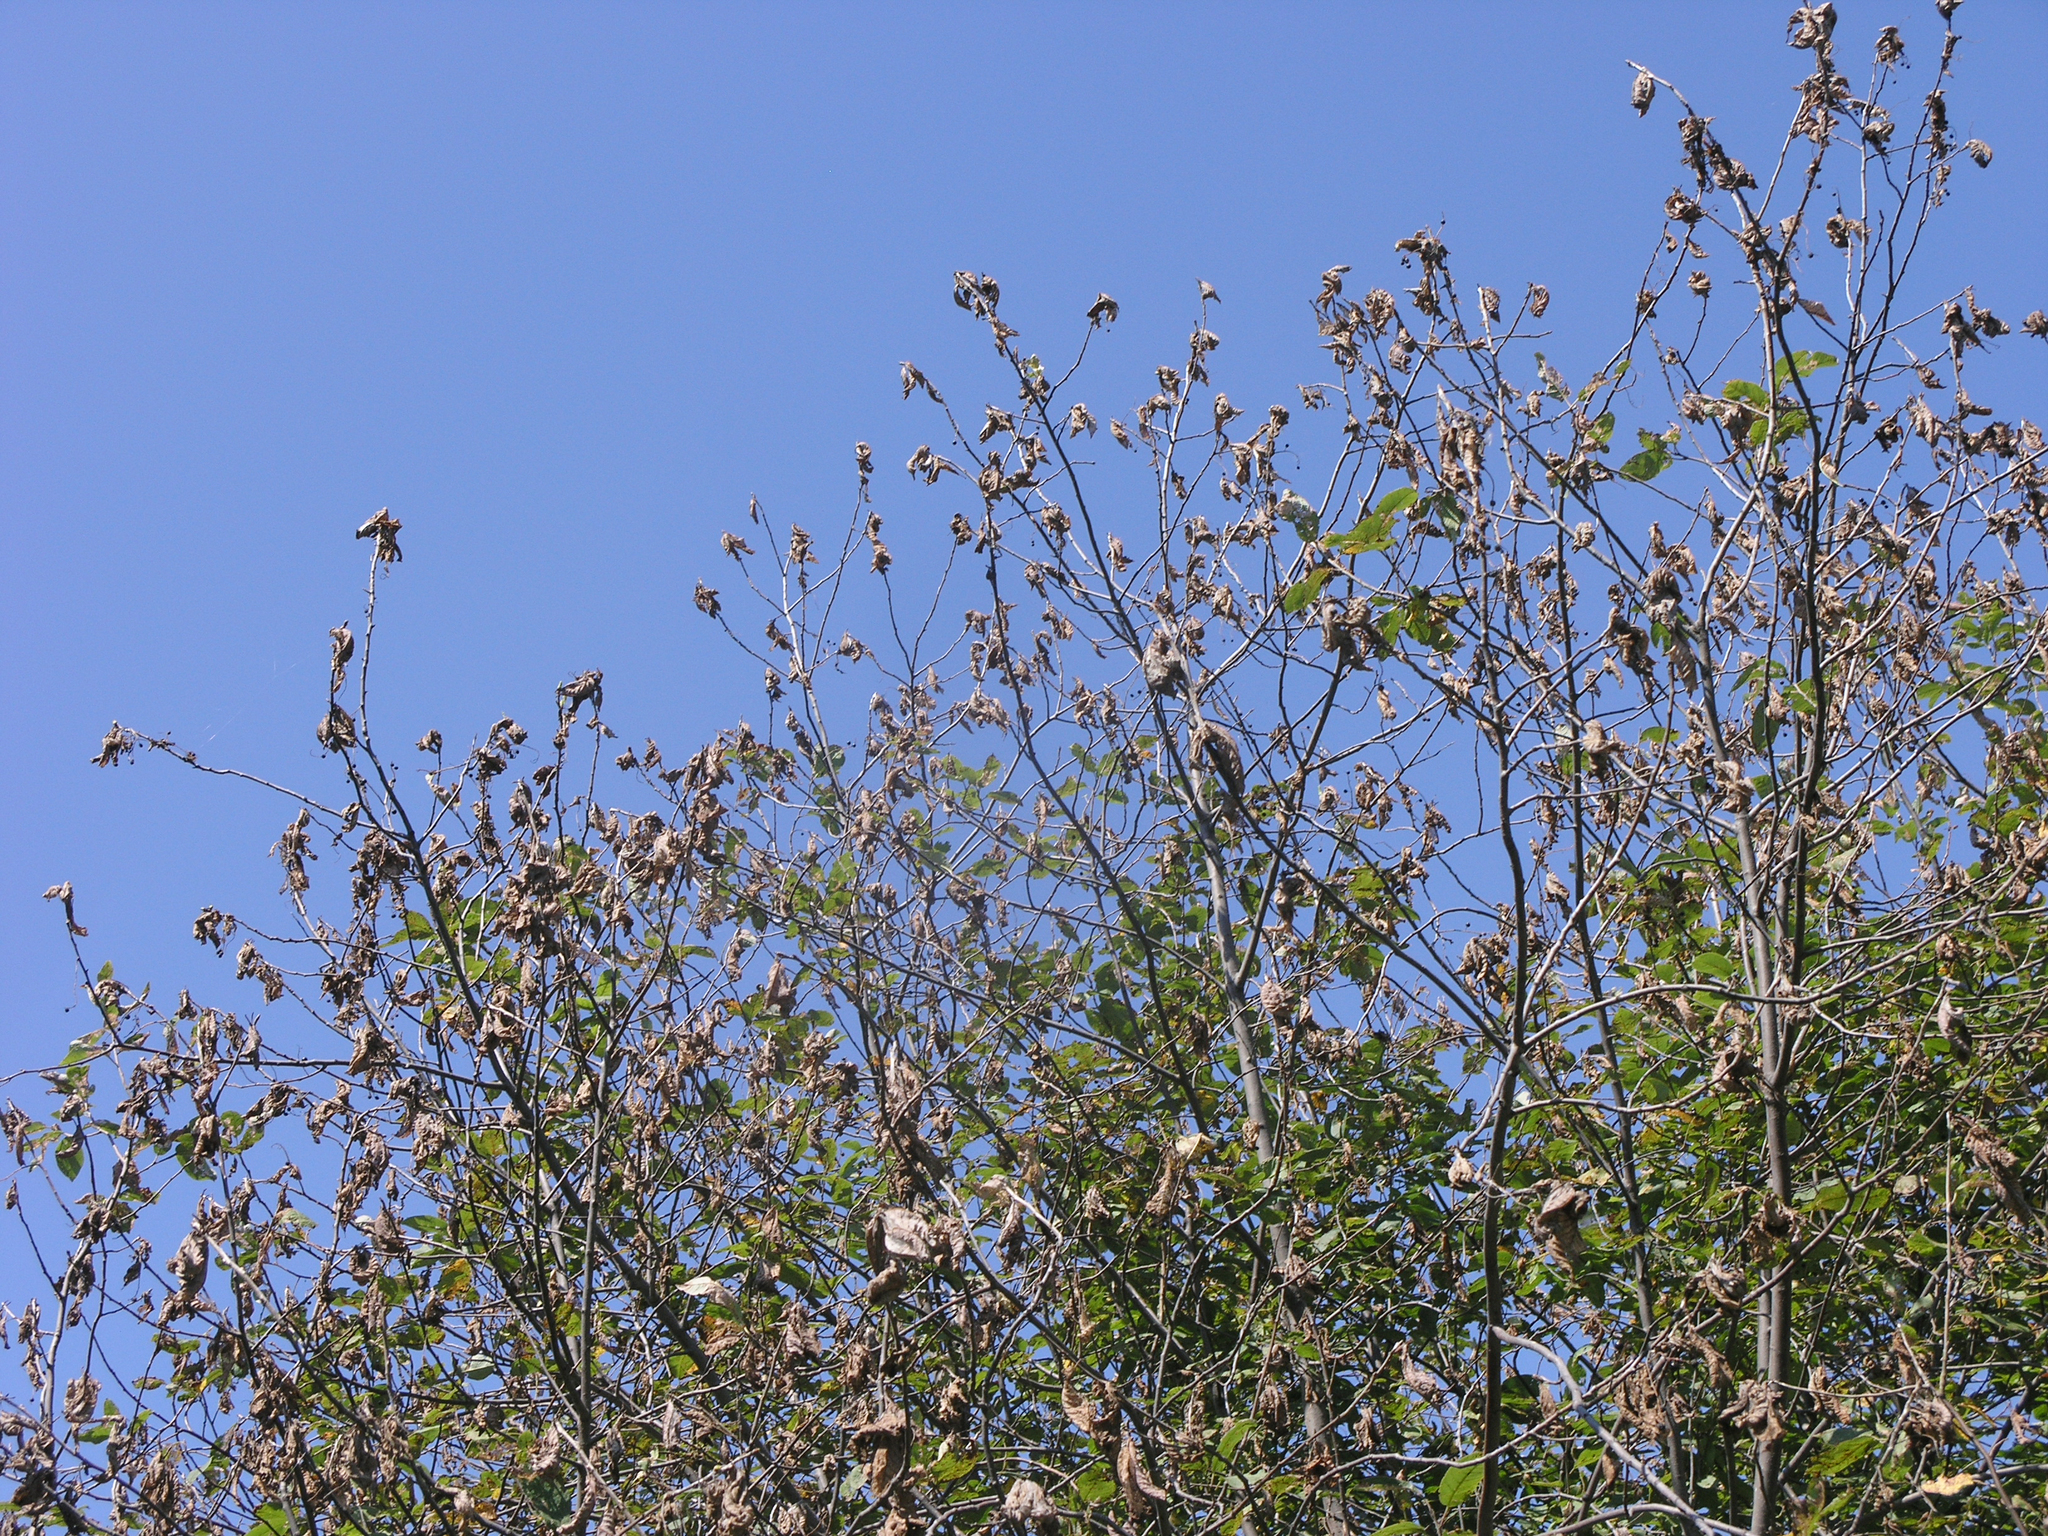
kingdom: Animalia
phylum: Arthropoda
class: Insecta
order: Lepidoptera
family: Pieridae
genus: Aporia
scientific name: Aporia crataegi
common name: Black-veined white
